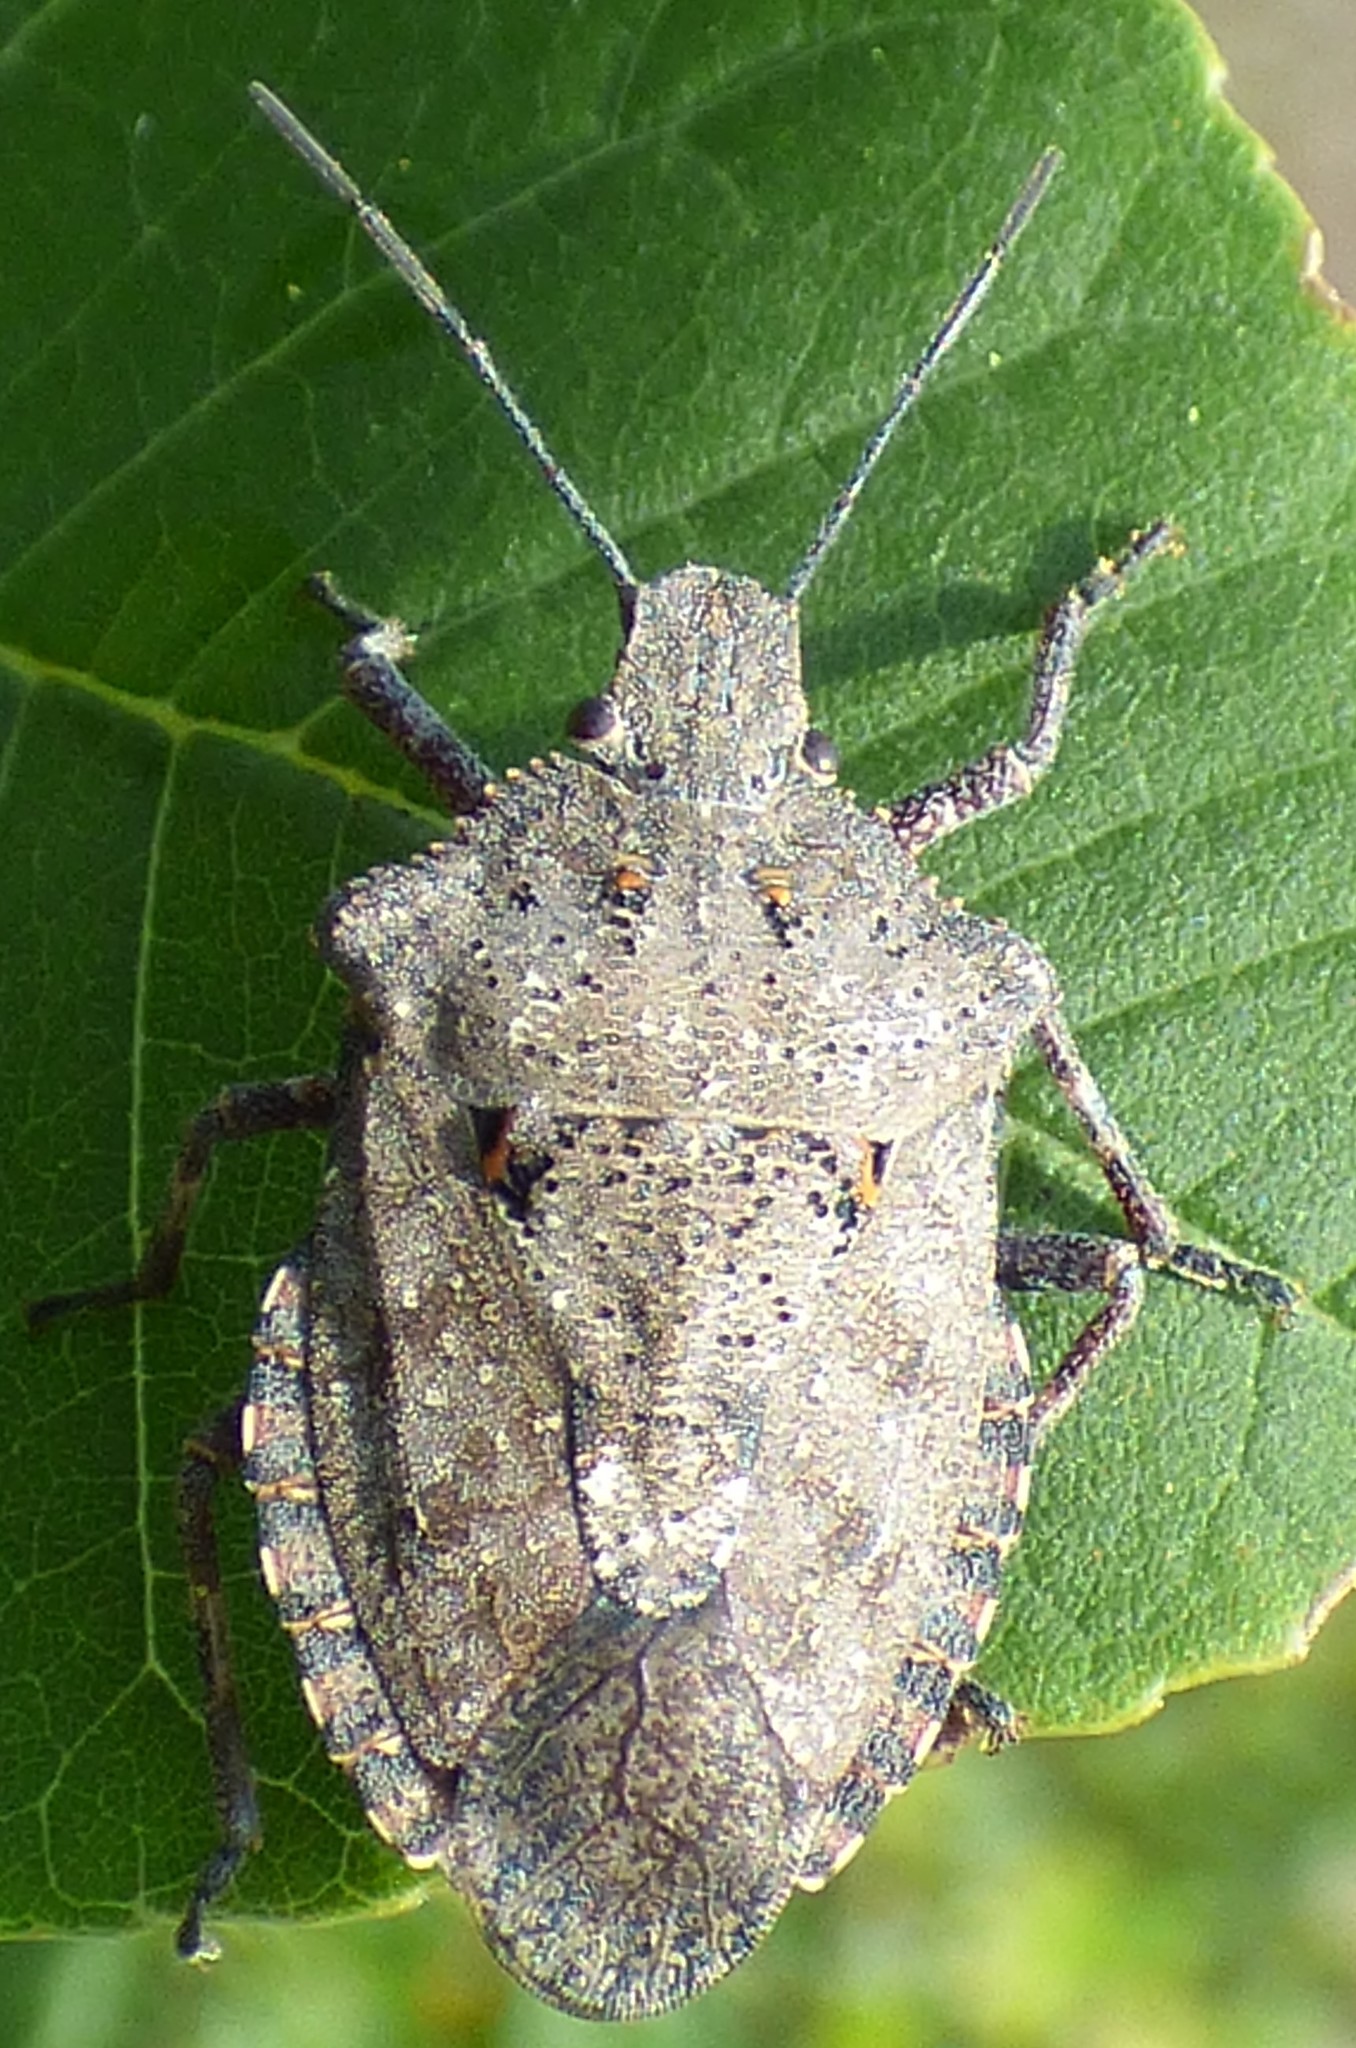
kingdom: Animalia
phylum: Arthropoda
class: Insecta
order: Hemiptera
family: Pentatomidae
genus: Brochymena
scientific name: Brochymena quadripustulata
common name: Four-humped stink bug
